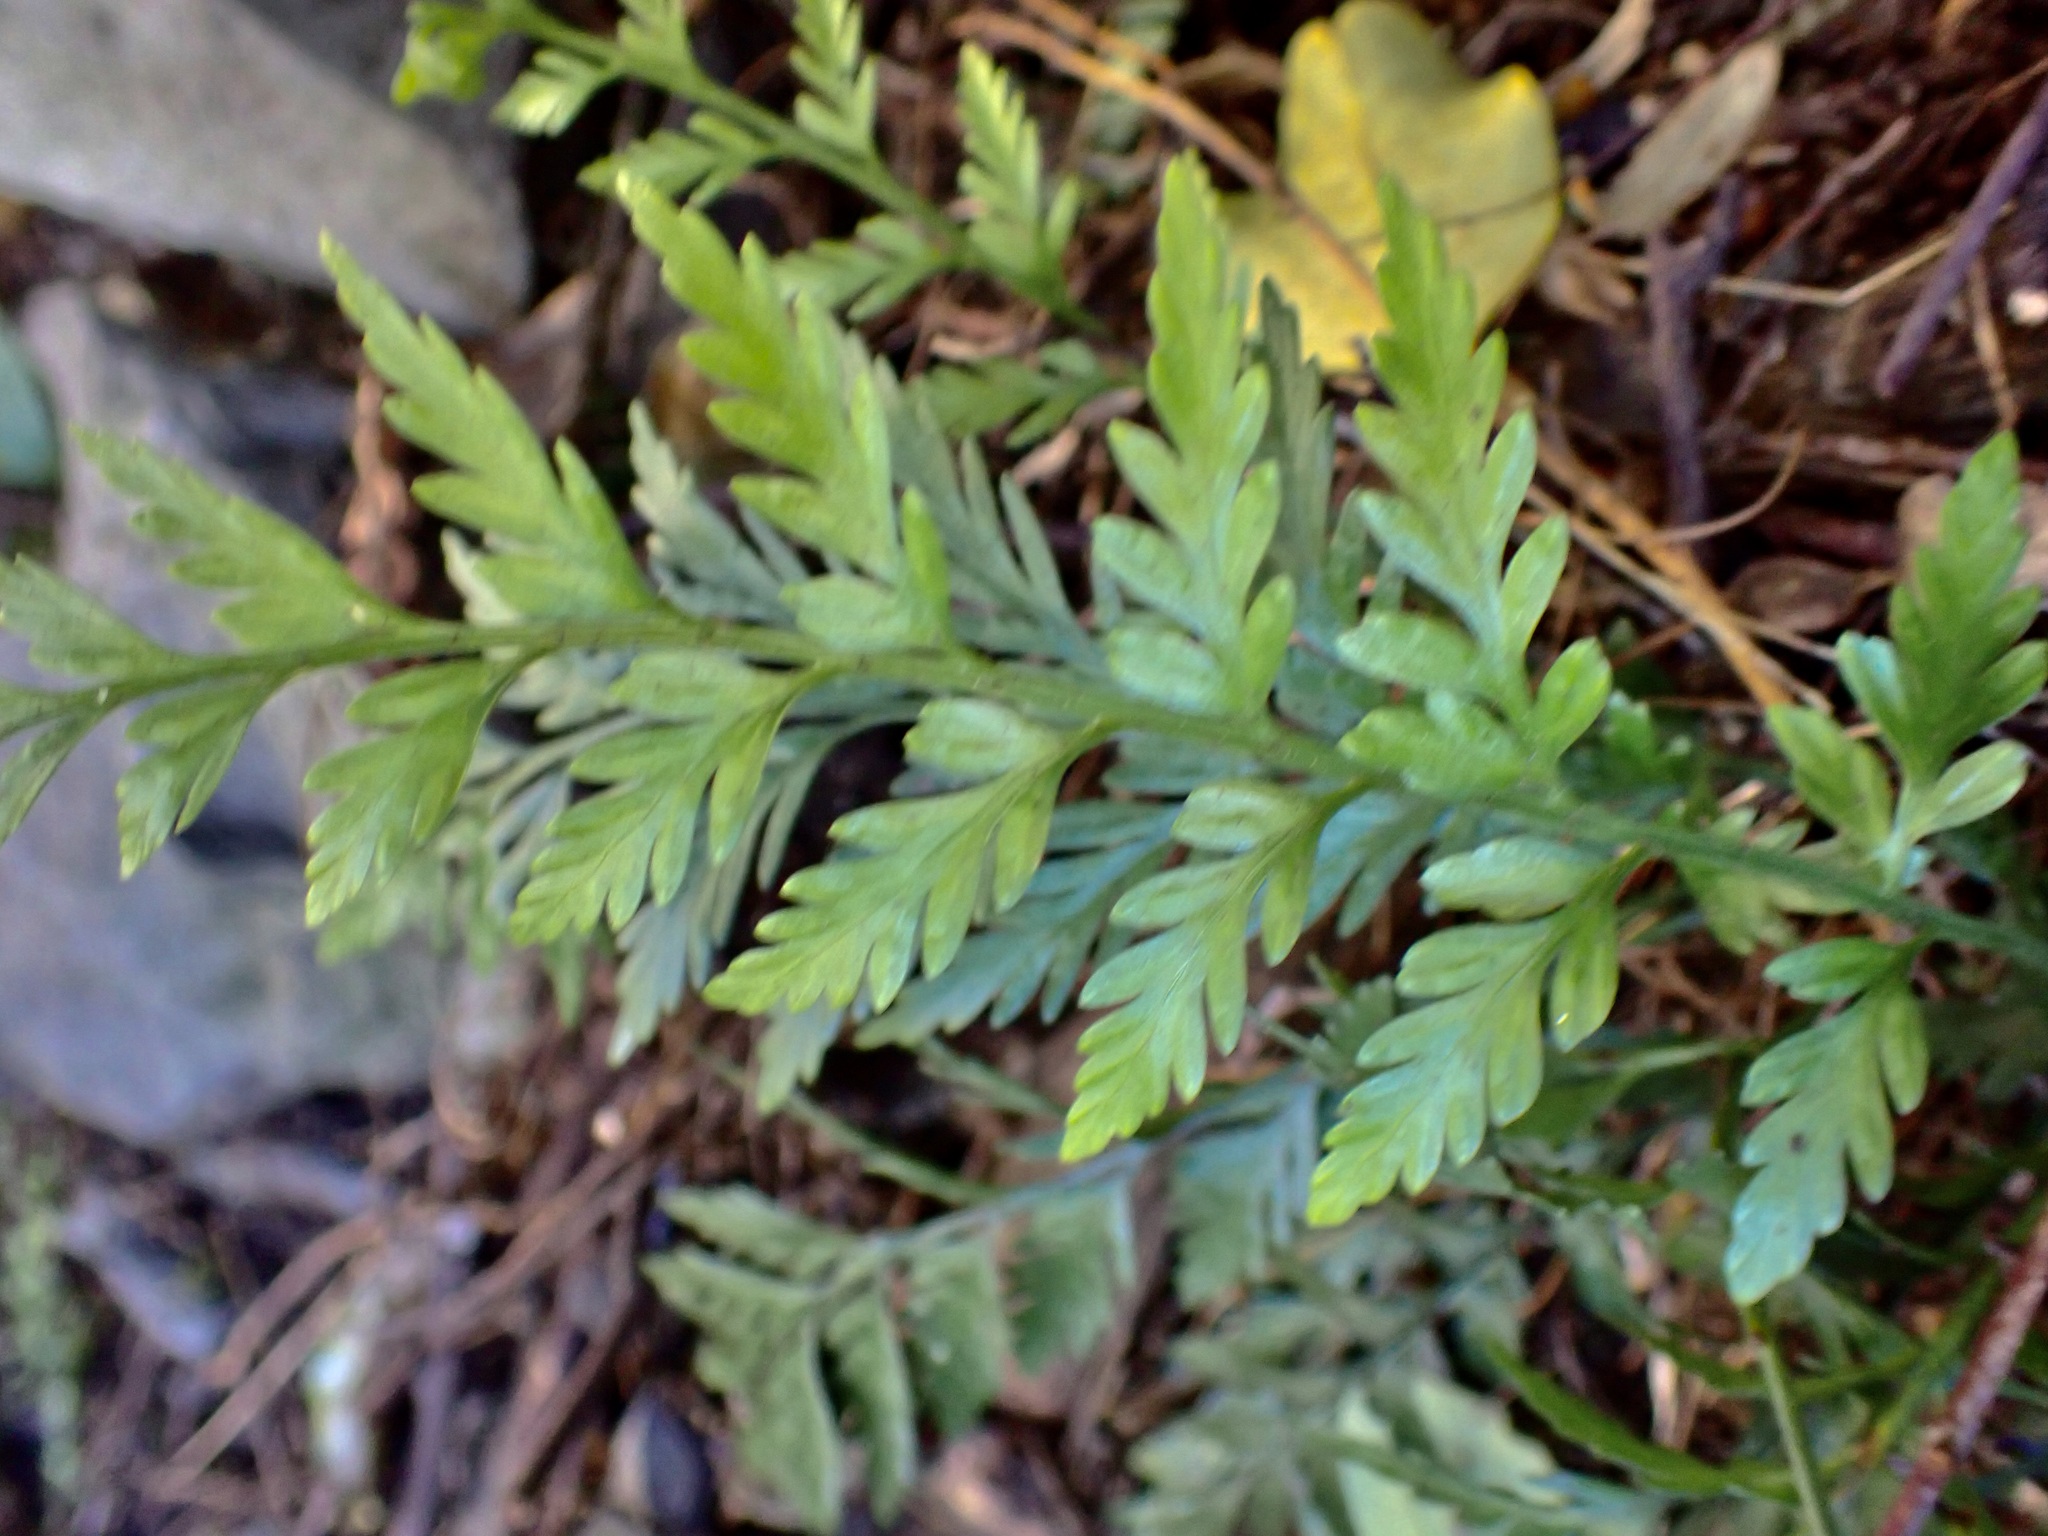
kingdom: Plantae
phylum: Tracheophyta
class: Polypodiopsida
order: Polypodiales
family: Aspleniaceae
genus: Asplenium
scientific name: Asplenium appendiculatum
